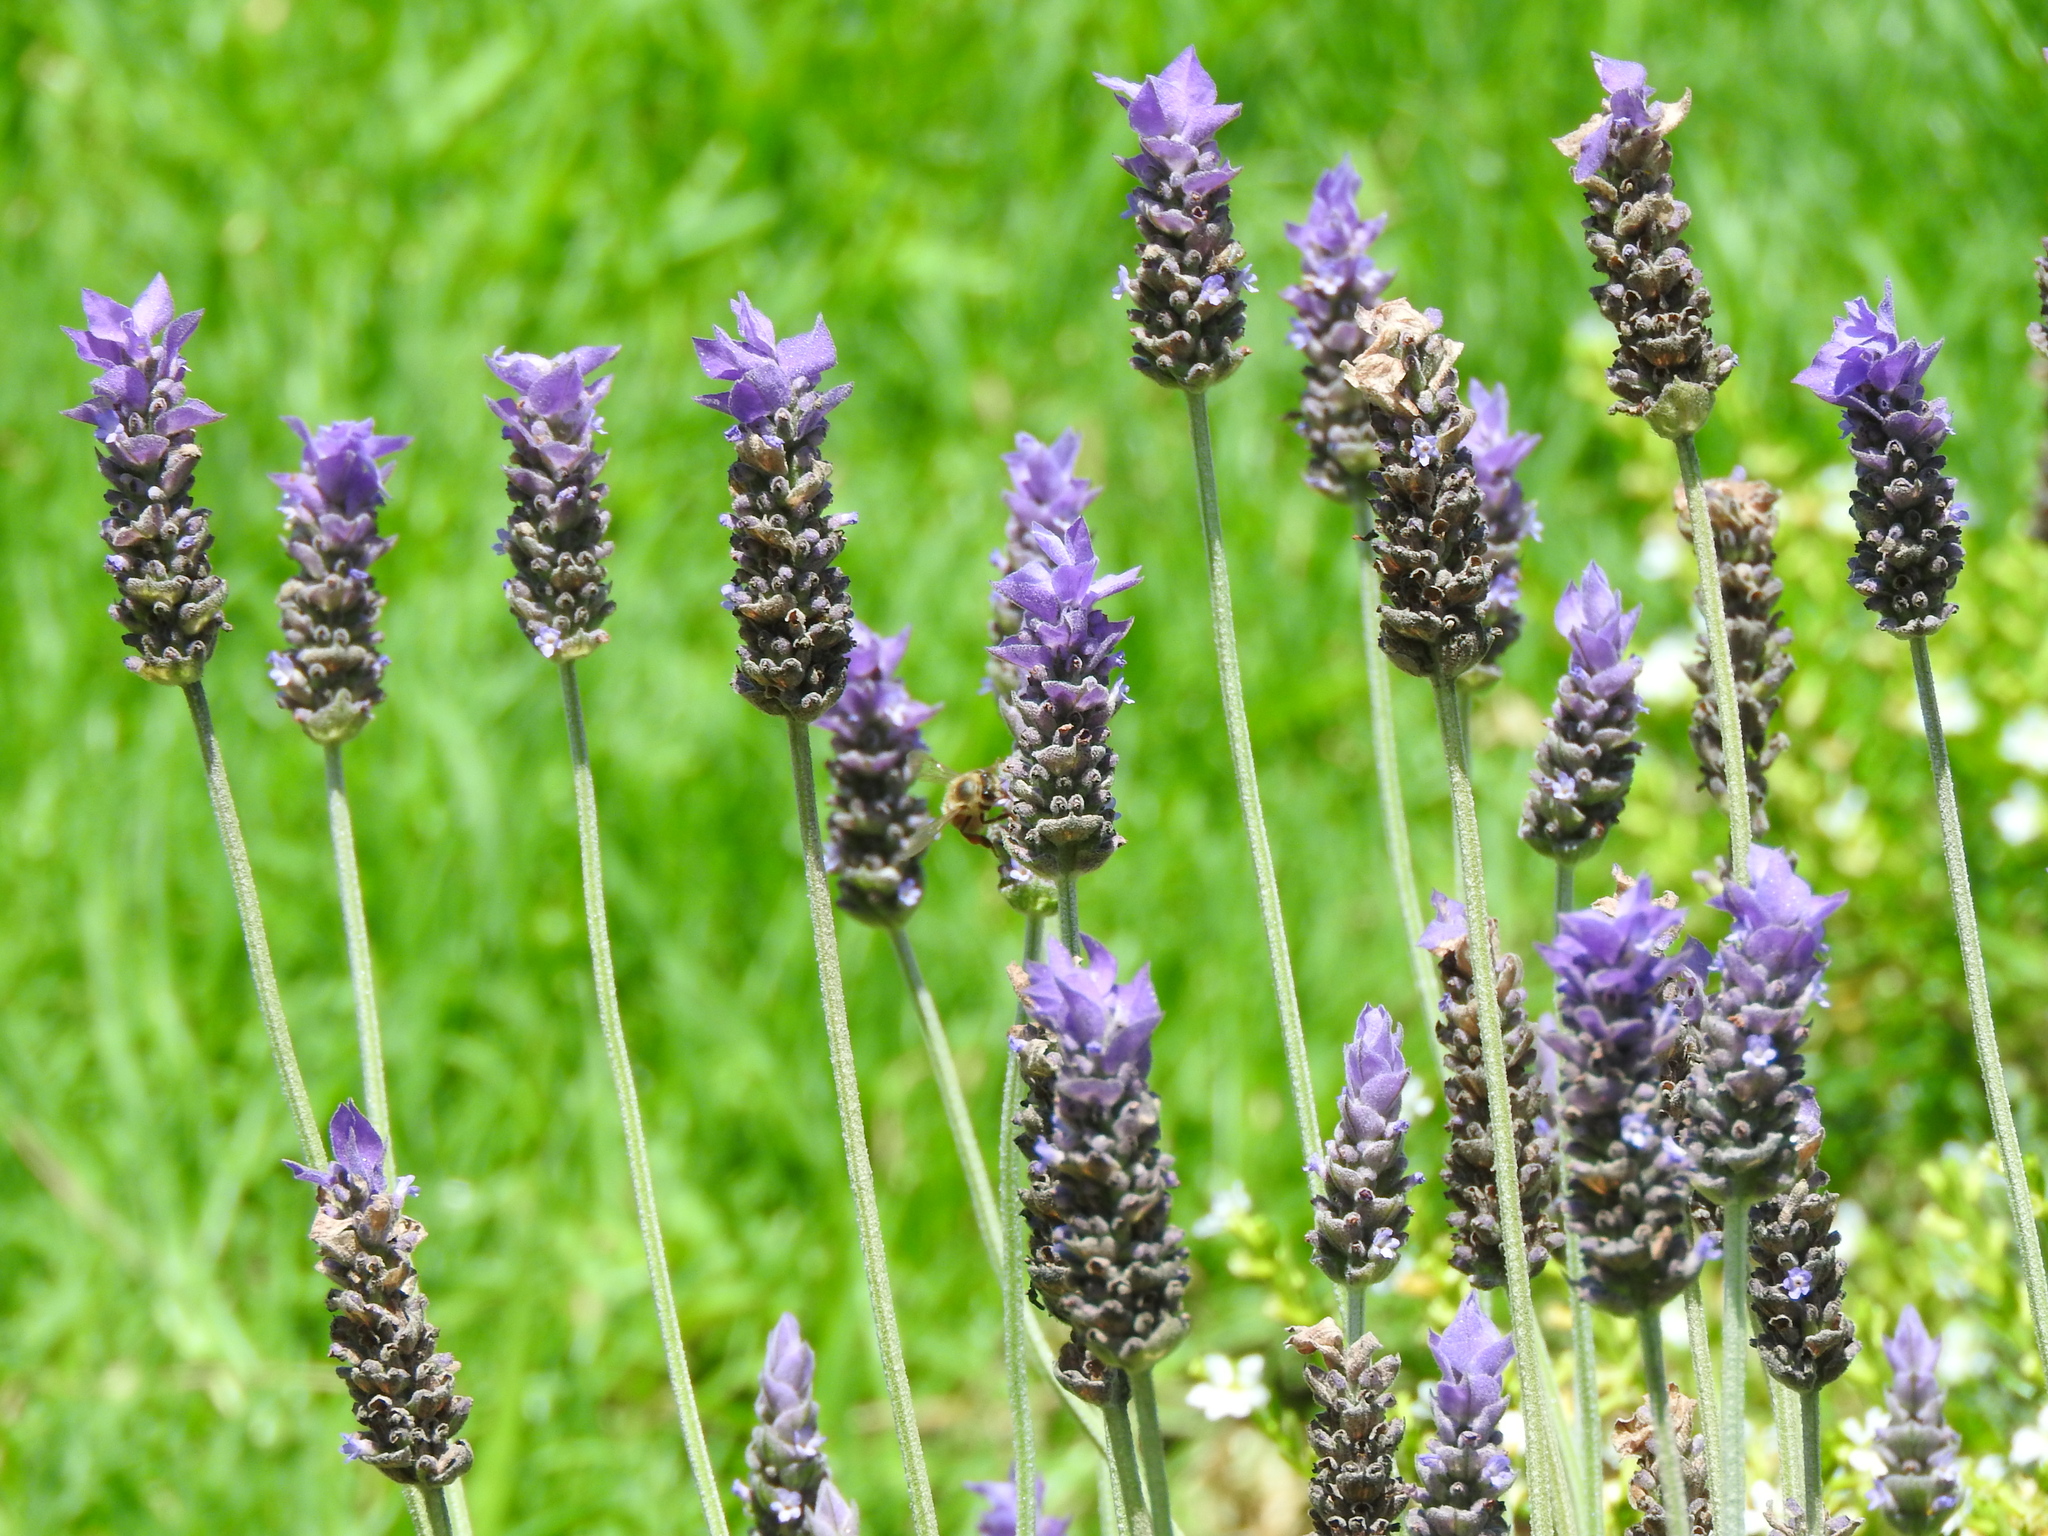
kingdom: Animalia
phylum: Arthropoda
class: Insecta
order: Hymenoptera
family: Apidae
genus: Apis
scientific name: Apis mellifera
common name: Honey bee
